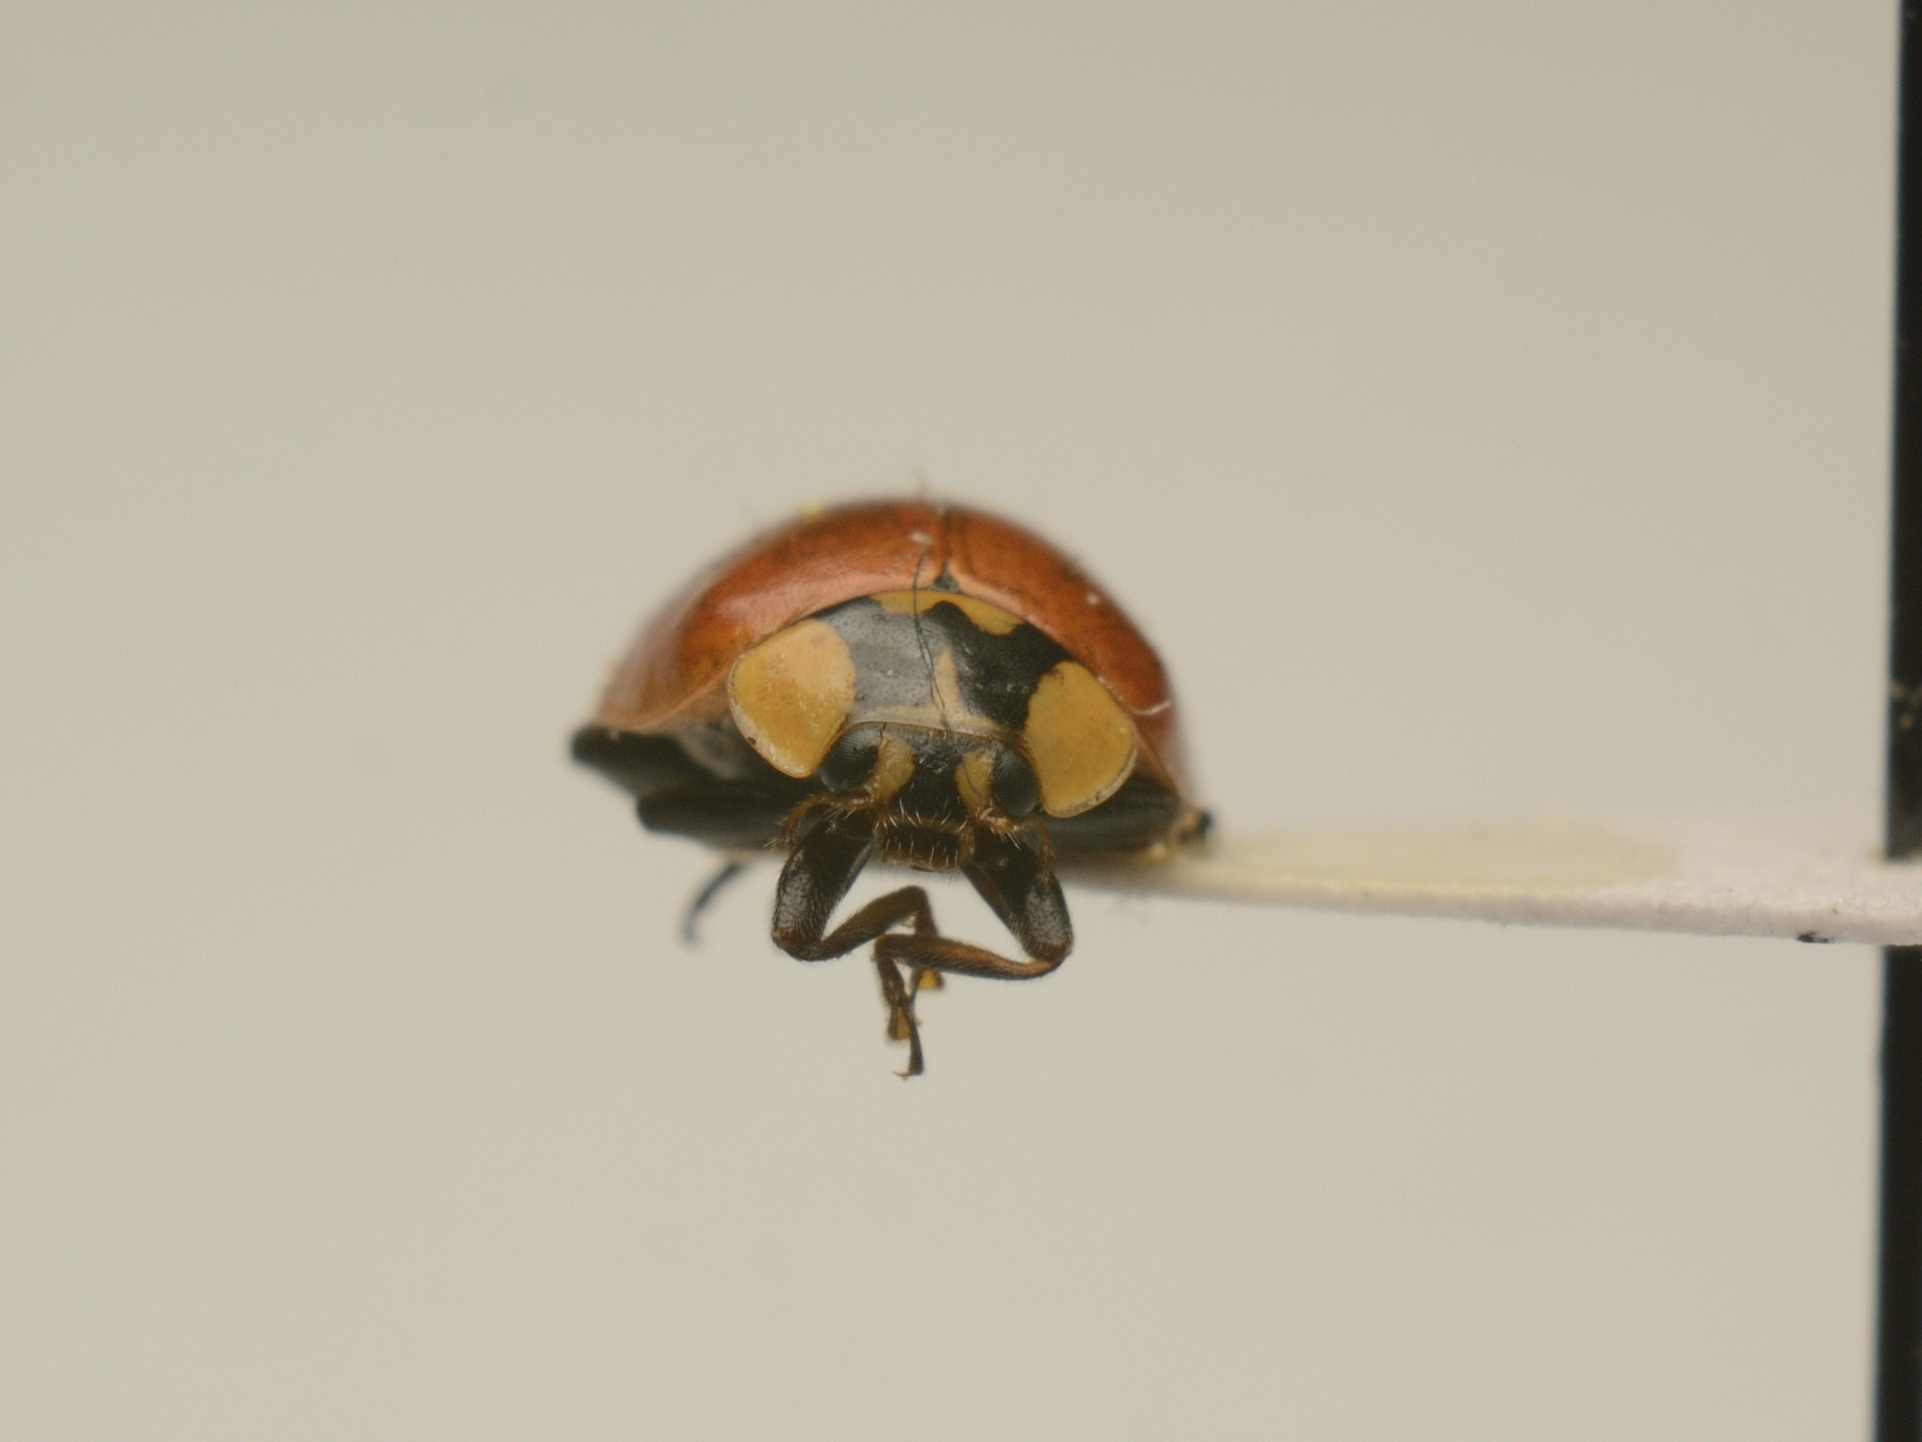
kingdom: Animalia
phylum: Arthropoda
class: Insecta
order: Coleoptera
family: Coccinellidae
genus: Adalia
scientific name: Adalia bipunctata
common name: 2-spot ladybird
